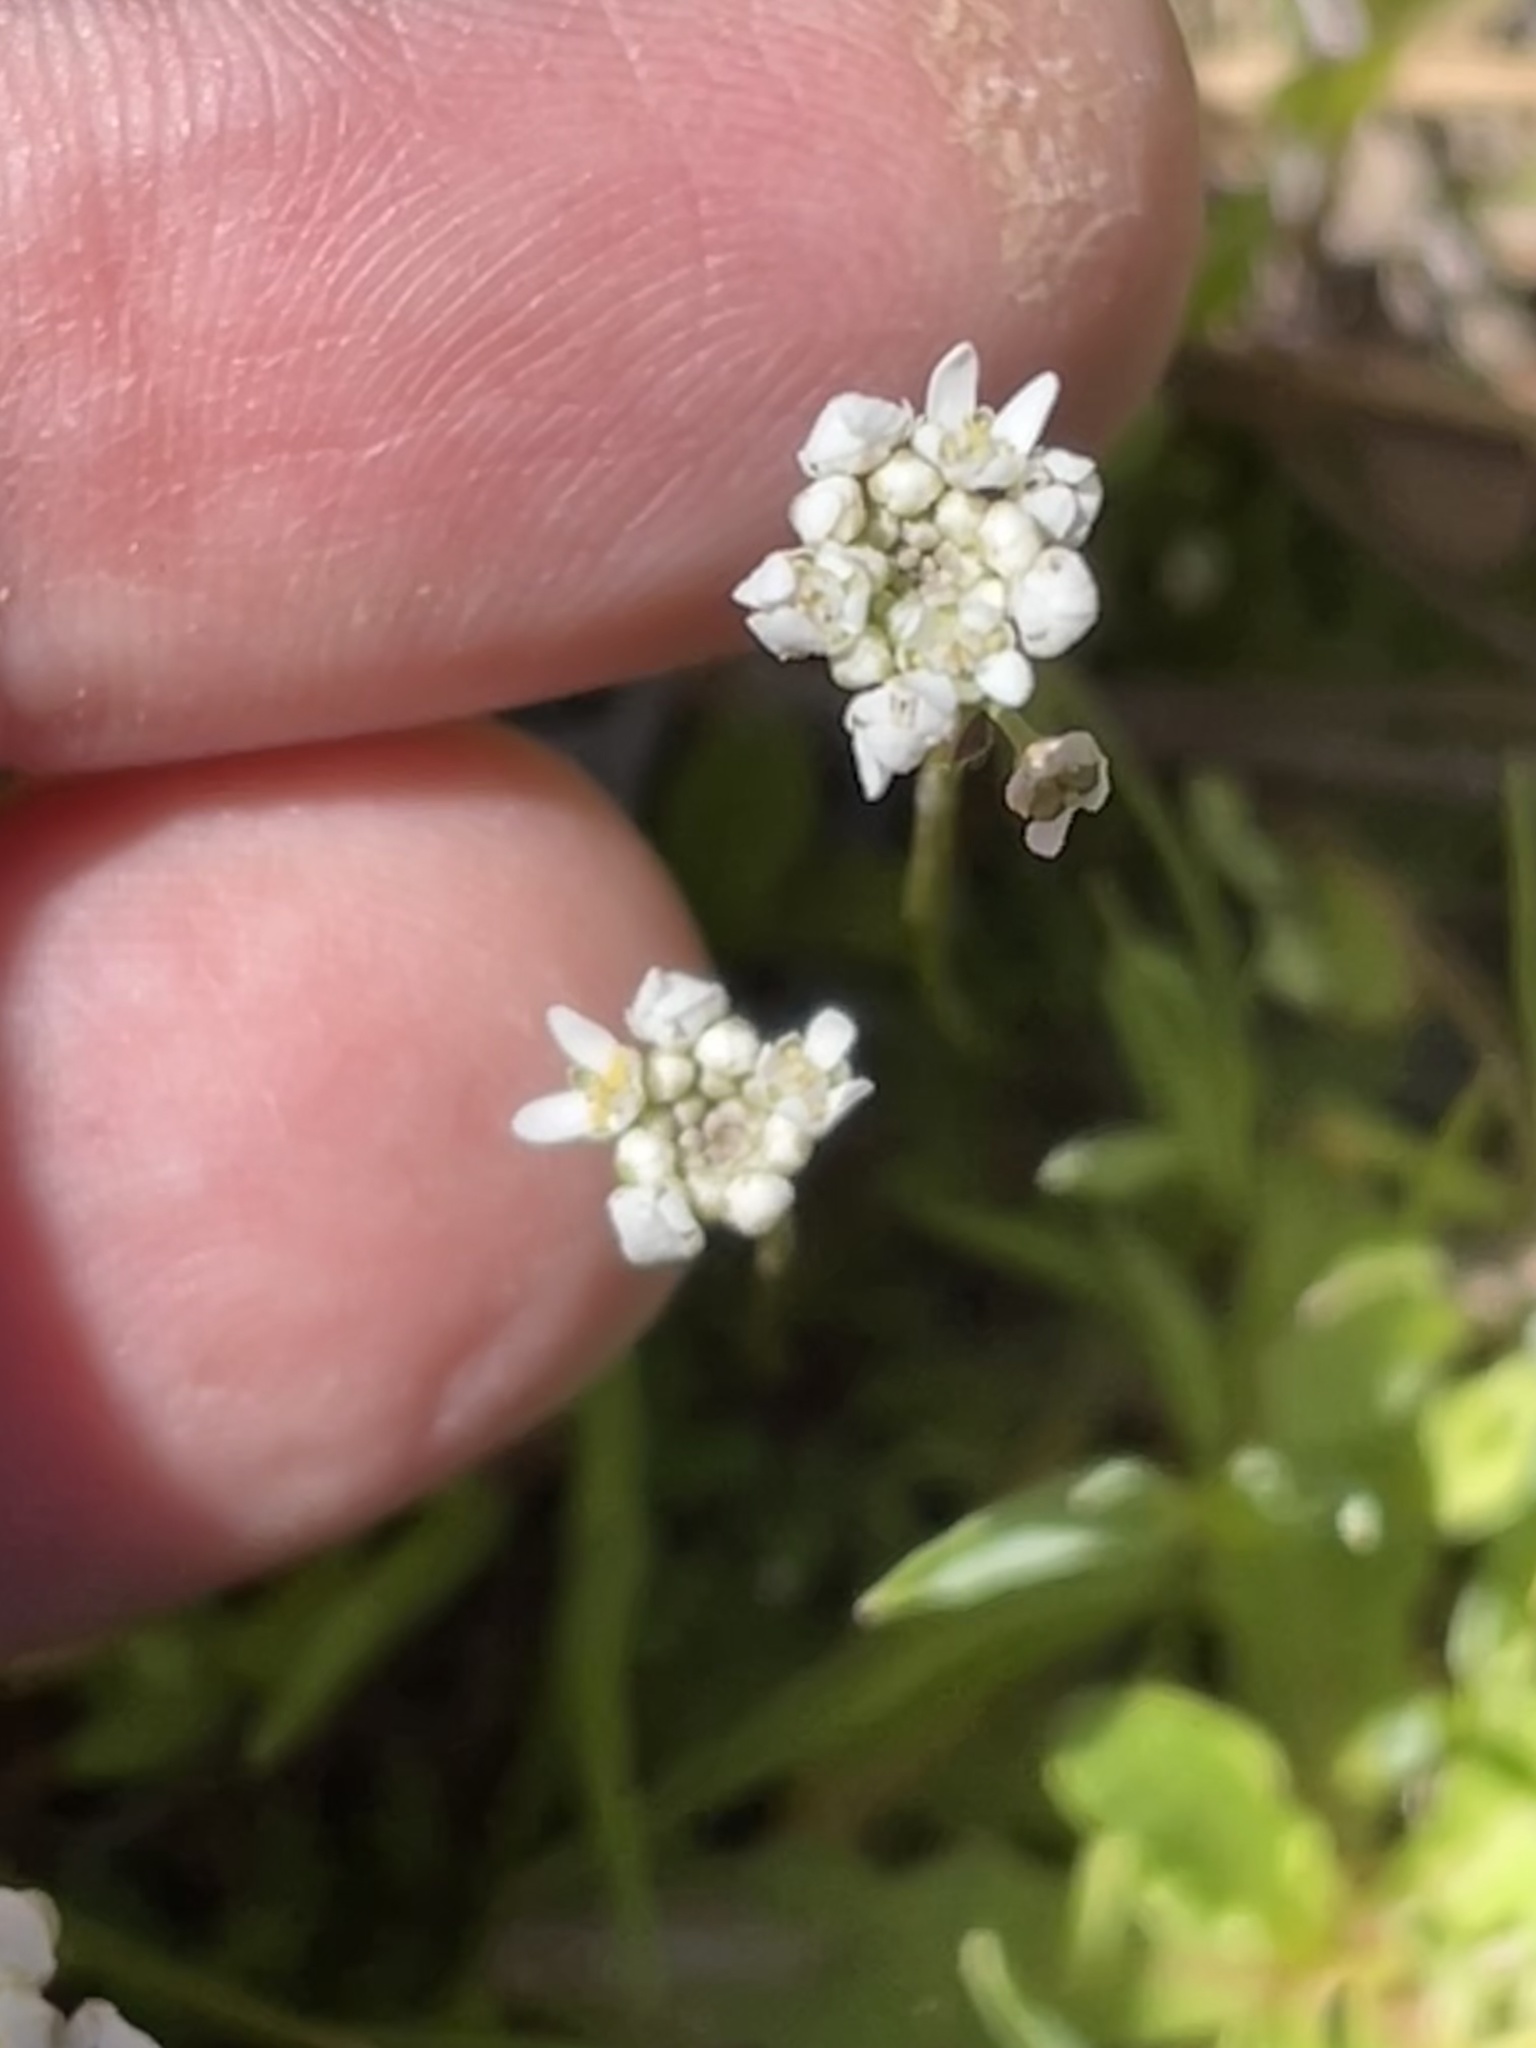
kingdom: Plantae
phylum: Tracheophyta
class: Magnoliopsida
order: Brassicales
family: Brassicaceae
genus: Teesdalia
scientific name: Teesdalia nudicaulis
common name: Shepherd's cress
